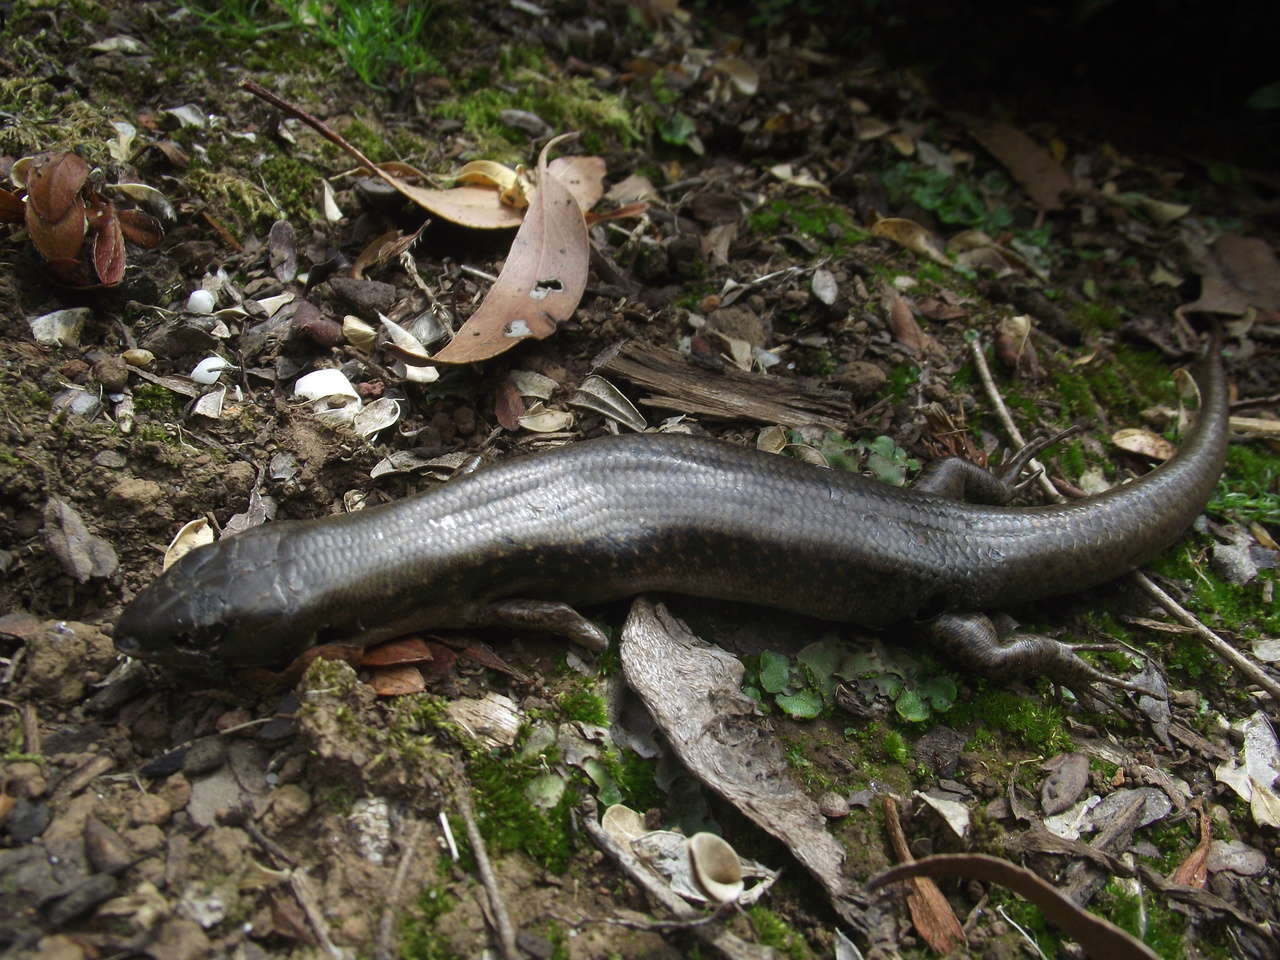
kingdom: Animalia
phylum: Chordata
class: Squamata
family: Scincidae
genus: Eulamprus
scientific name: Eulamprus tympanum
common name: Cool-temperate water-skink
